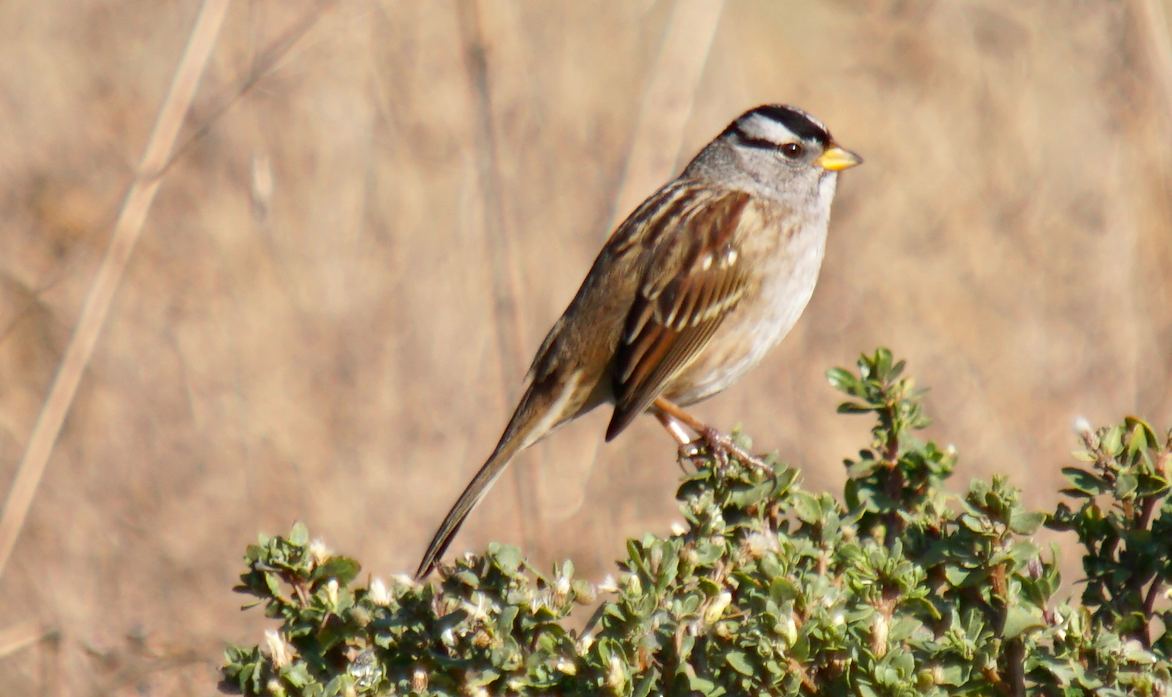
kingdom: Animalia
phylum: Chordata
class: Aves
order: Passeriformes
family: Passerellidae
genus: Zonotrichia
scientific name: Zonotrichia leucophrys
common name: White-crowned sparrow
